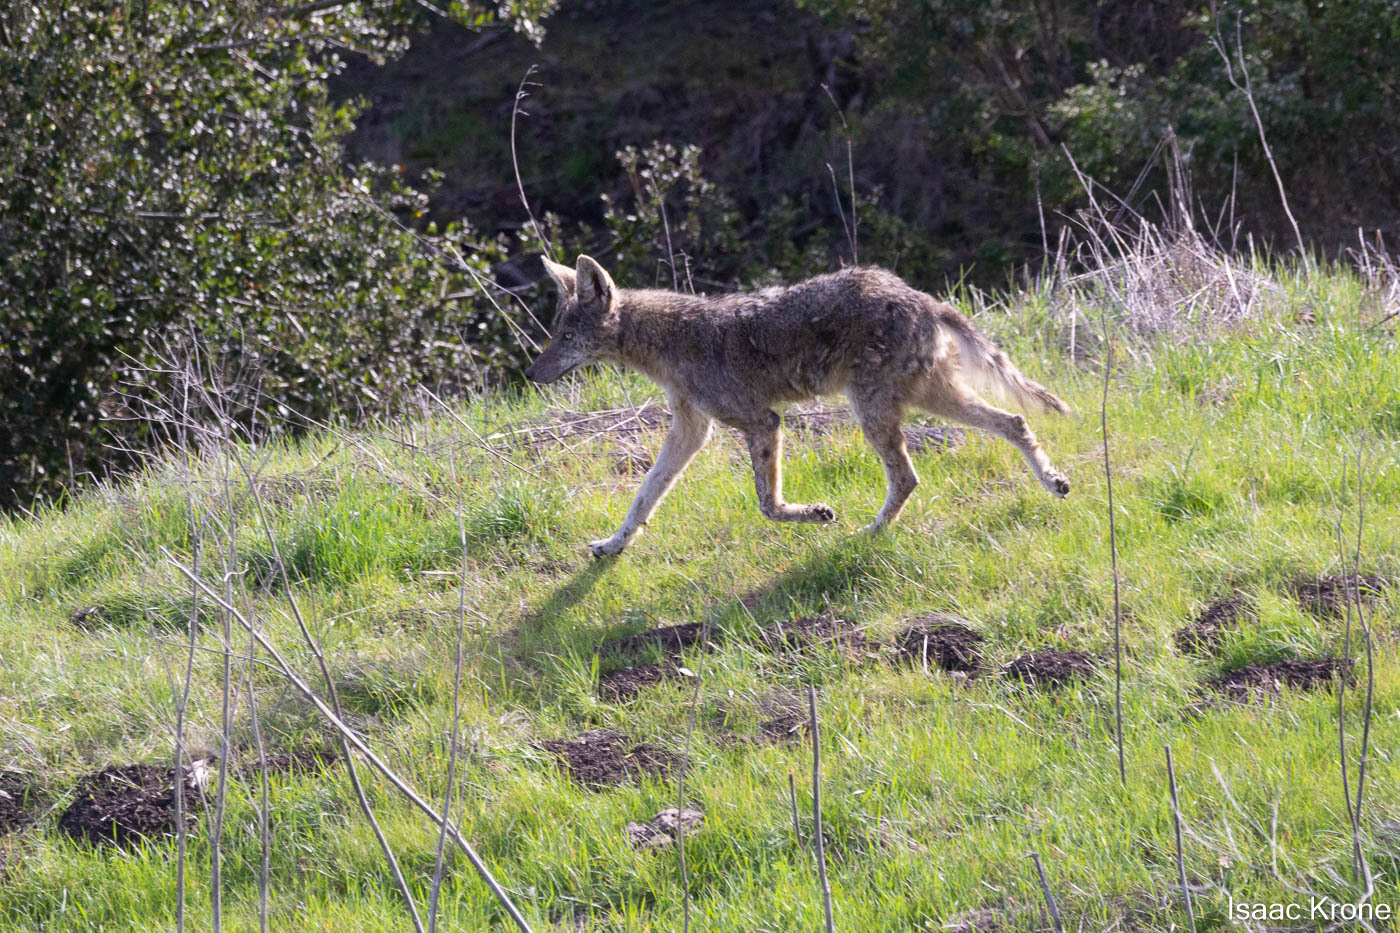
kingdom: Animalia
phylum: Chordata
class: Mammalia
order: Carnivora
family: Canidae
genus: Canis
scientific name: Canis latrans
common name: Coyote
